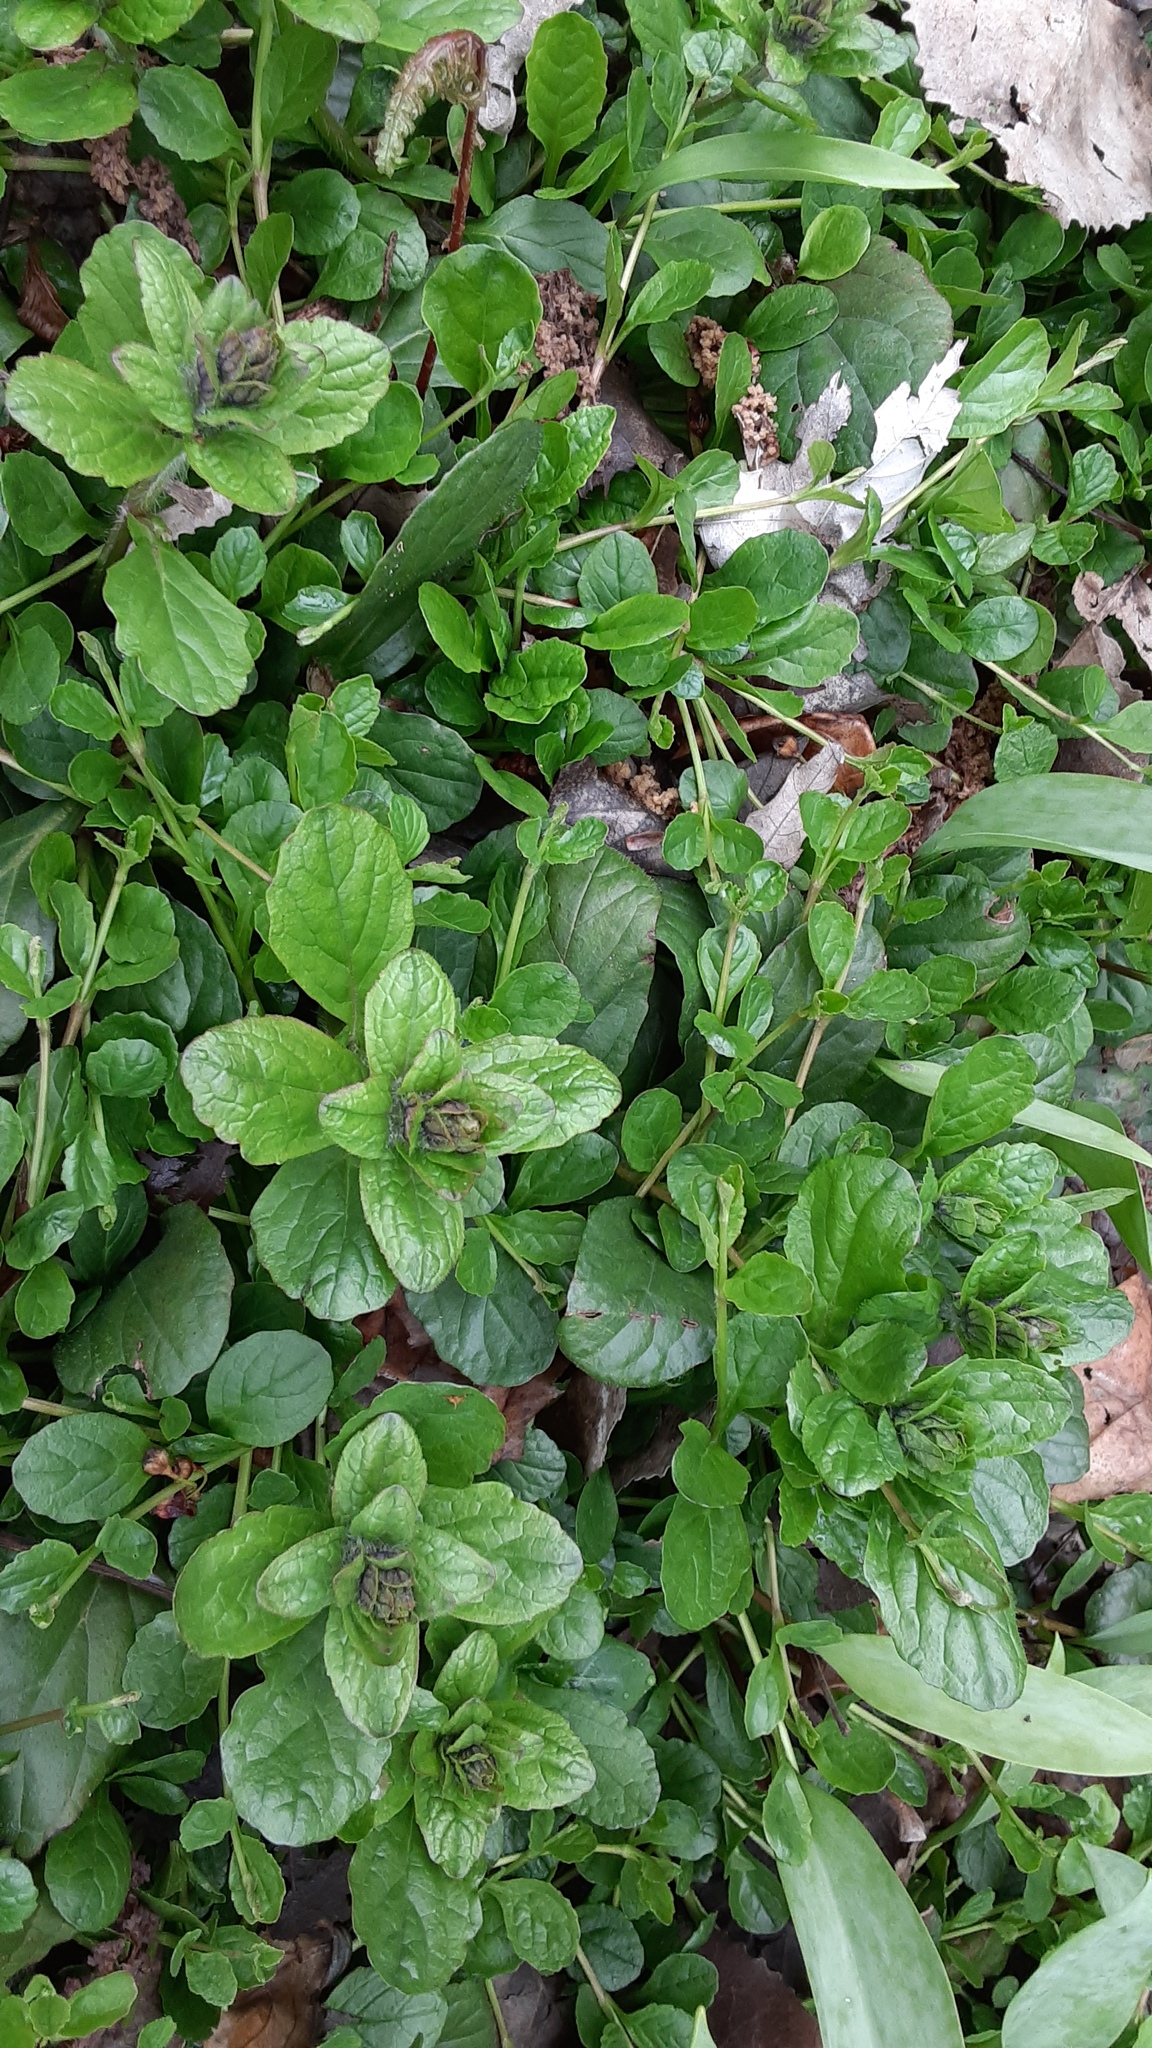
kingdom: Plantae
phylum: Tracheophyta
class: Magnoliopsida
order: Lamiales
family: Lamiaceae
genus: Ajuga
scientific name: Ajuga reptans
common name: Bugle
